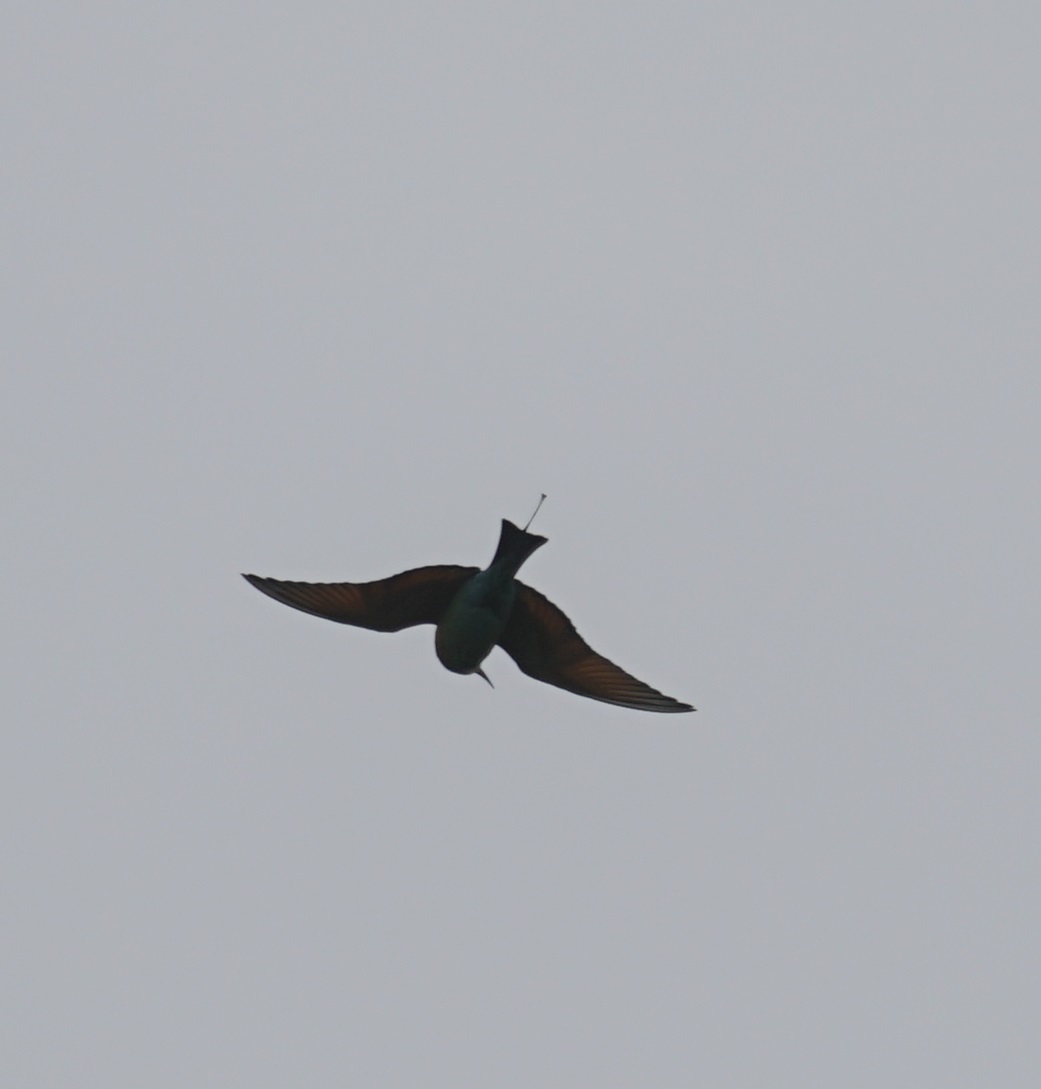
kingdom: Animalia
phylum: Chordata
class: Aves
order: Coraciiformes
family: Meropidae
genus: Merops
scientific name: Merops ornatus
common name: Rainbow bee-eater
